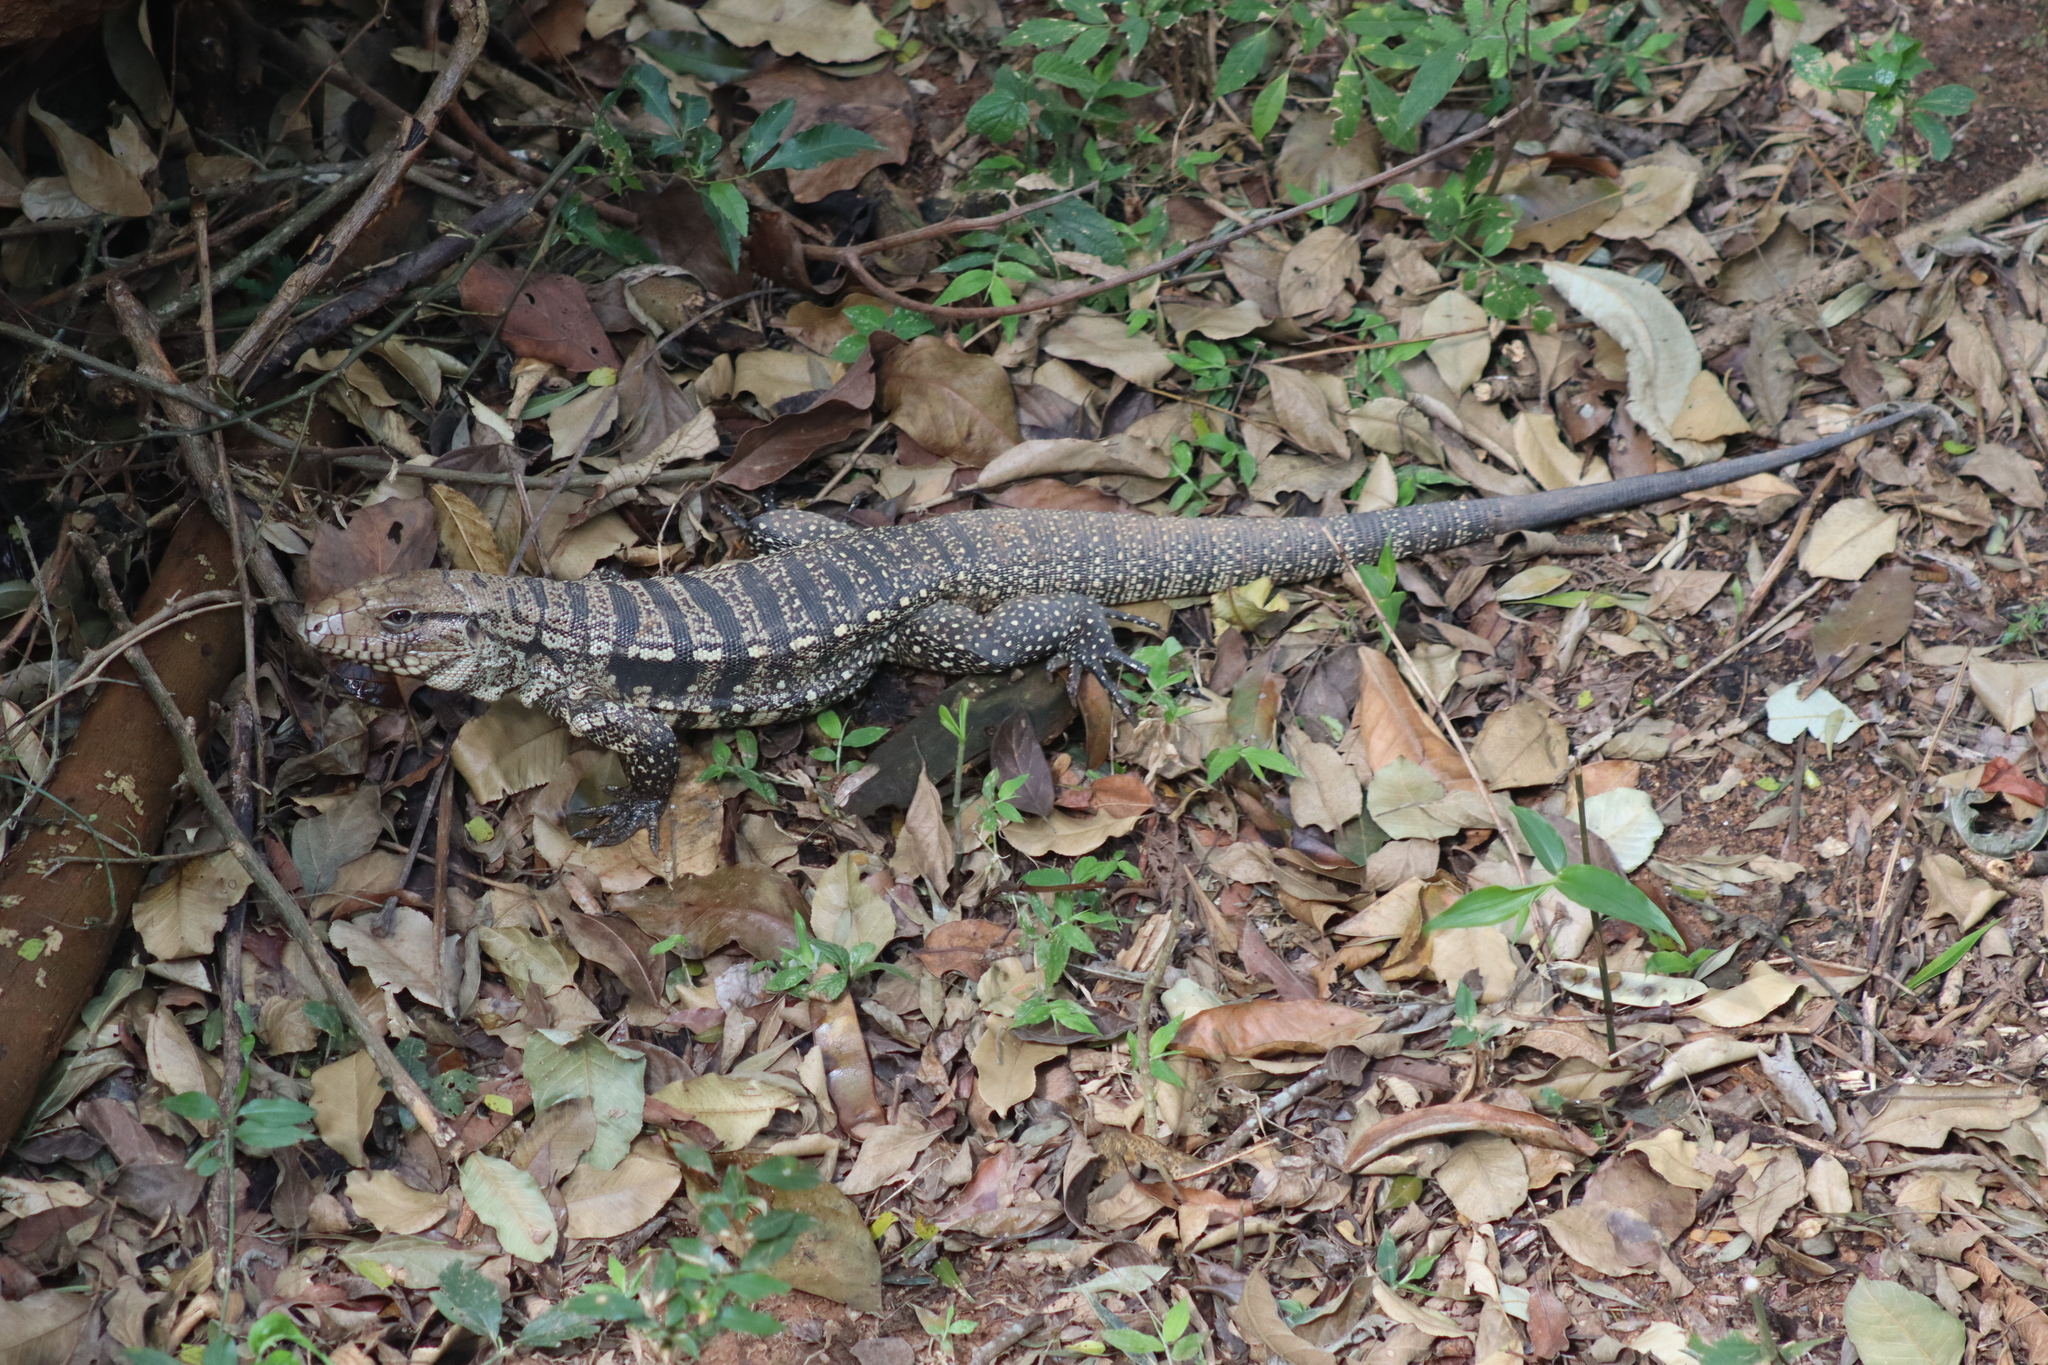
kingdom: Animalia
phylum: Chordata
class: Squamata
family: Teiidae
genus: Salvator
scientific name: Salvator merianae
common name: Argentine black and white tegu
